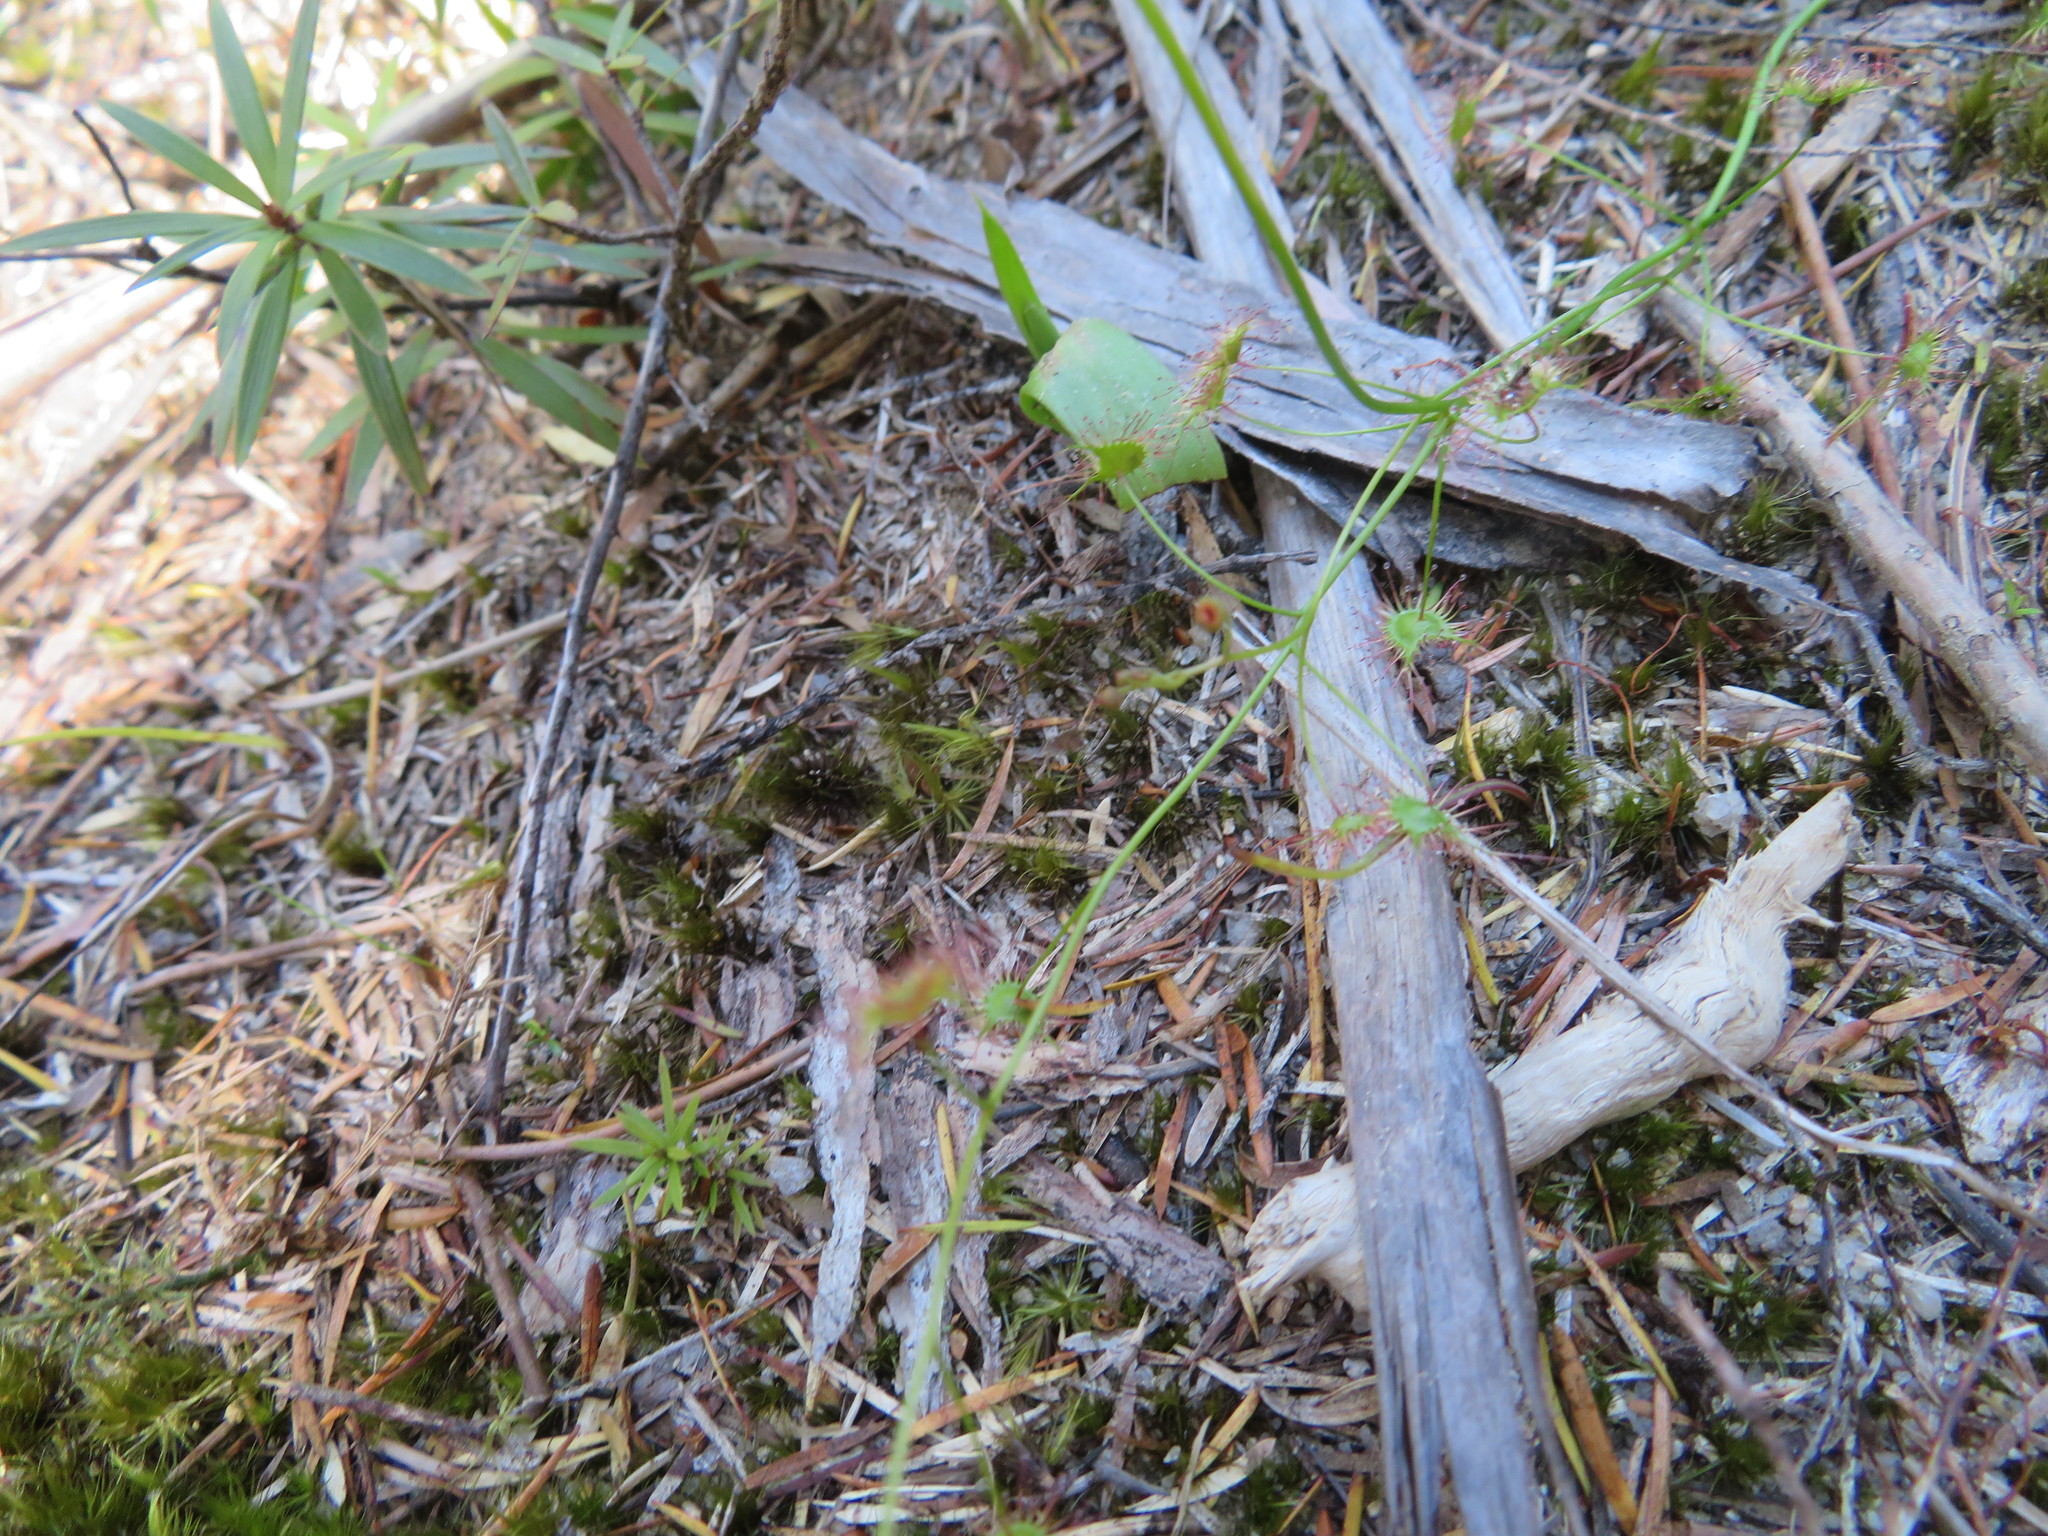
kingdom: Plantae
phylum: Tracheophyta
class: Magnoliopsida
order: Caryophyllales
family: Droseraceae
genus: Drosera
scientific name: Drosera peltata
